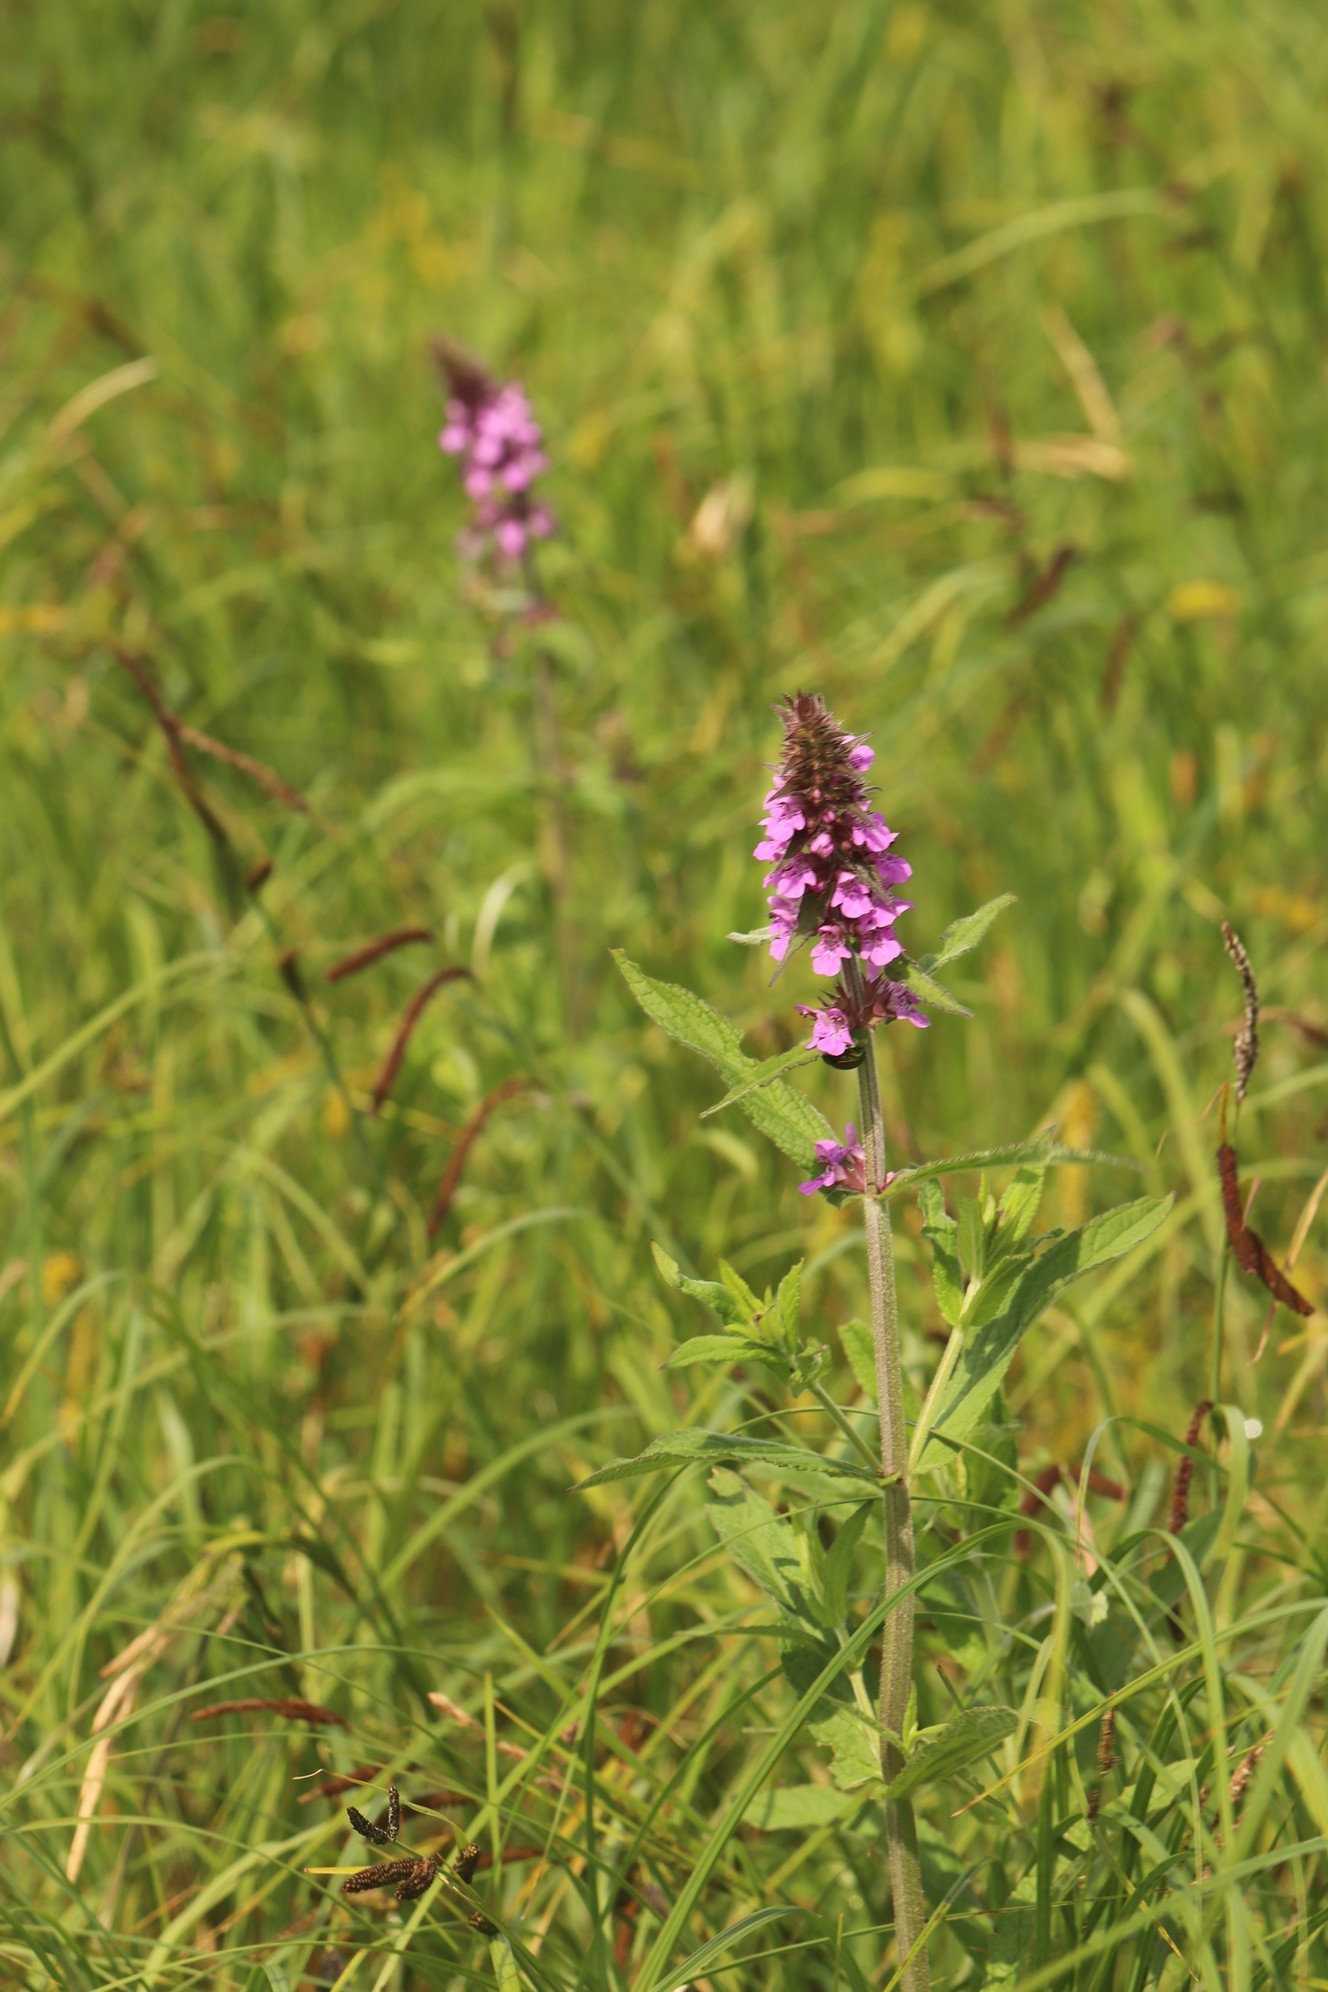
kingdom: Plantae
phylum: Tracheophyta
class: Magnoliopsida
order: Lamiales
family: Lamiaceae
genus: Stachys
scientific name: Stachys palustris
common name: Marsh woundwort
